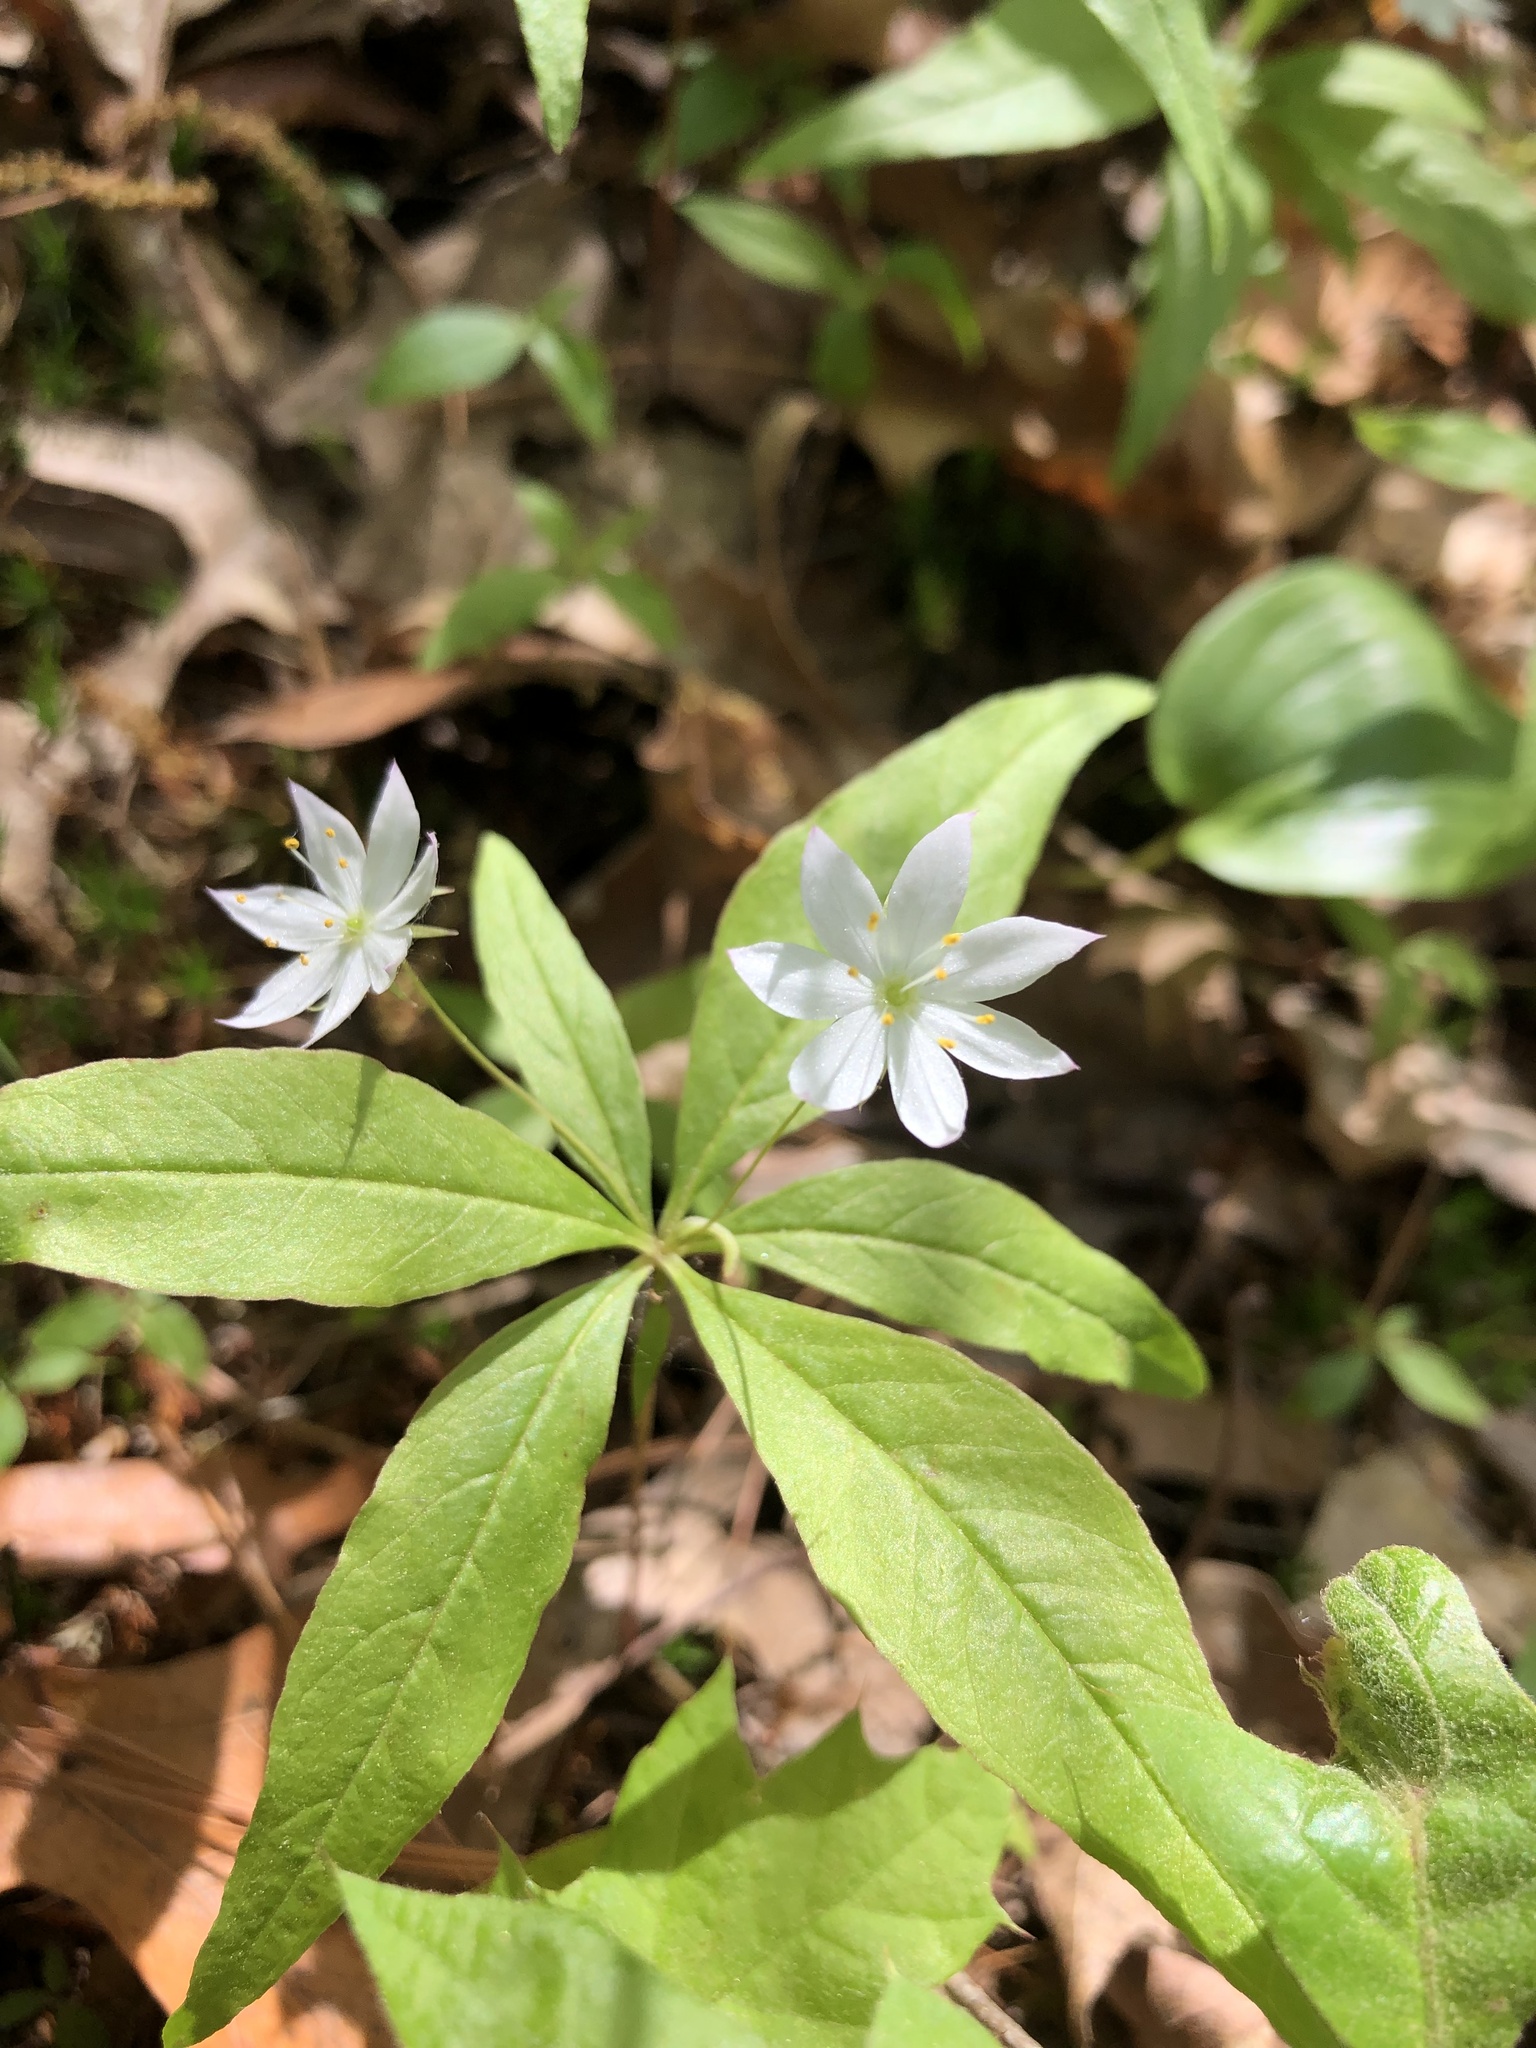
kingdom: Plantae
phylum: Tracheophyta
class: Magnoliopsida
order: Ericales
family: Primulaceae
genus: Lysimachia
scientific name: Lysimachia borealis
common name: American starflower
